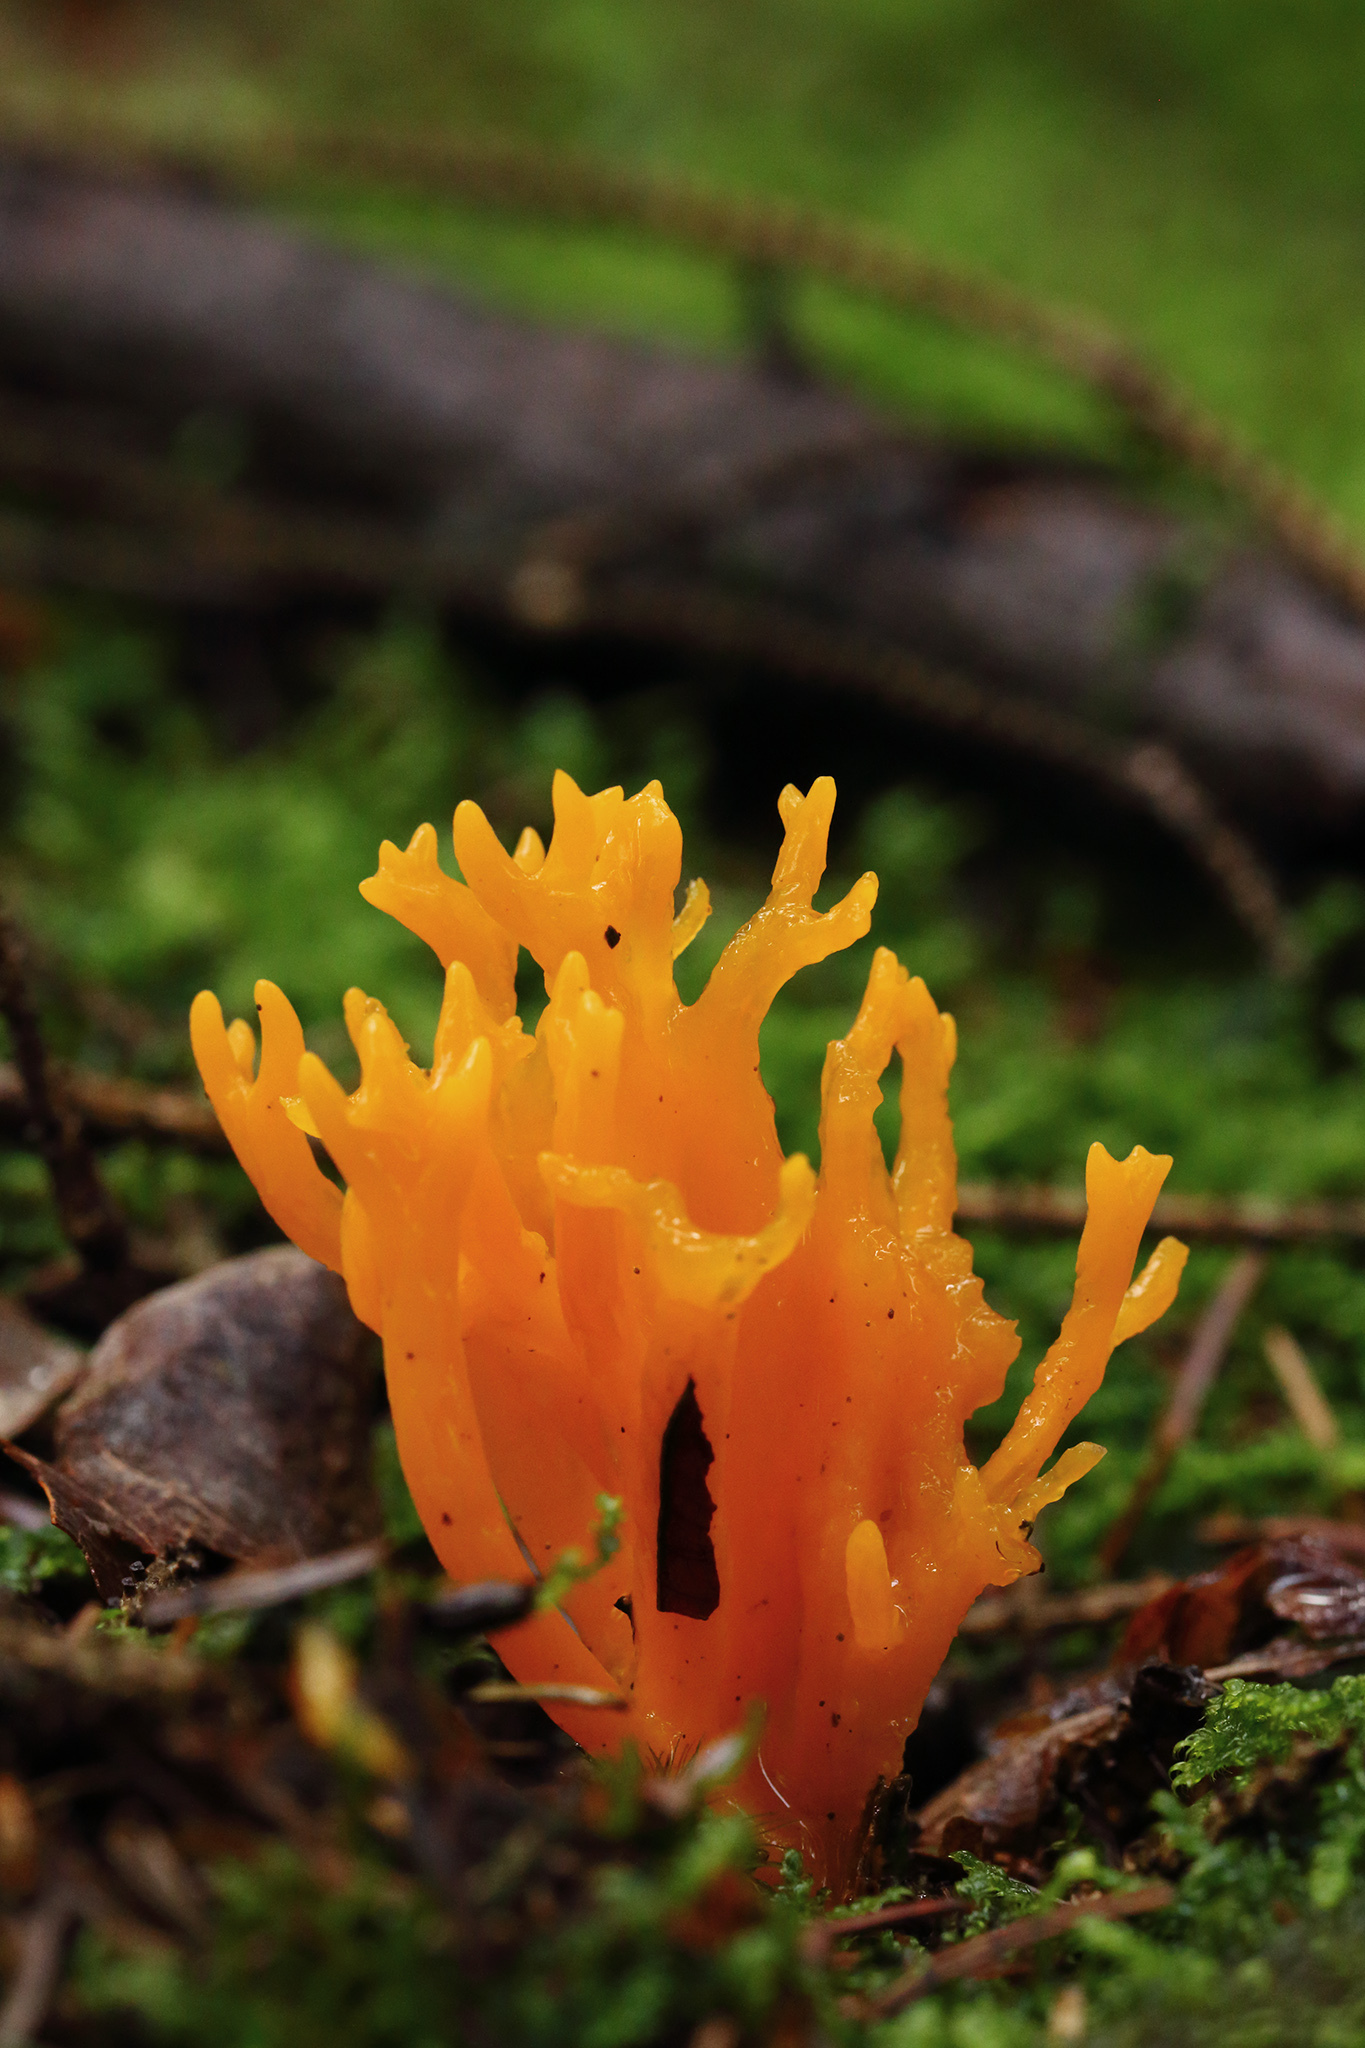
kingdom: Fungi
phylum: Basidiomycota
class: Dacrymycetes
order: Dacrymycetales
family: Dacrymycetaceae
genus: Calocera
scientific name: Calocera viscosa
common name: Yellow stagshorn
